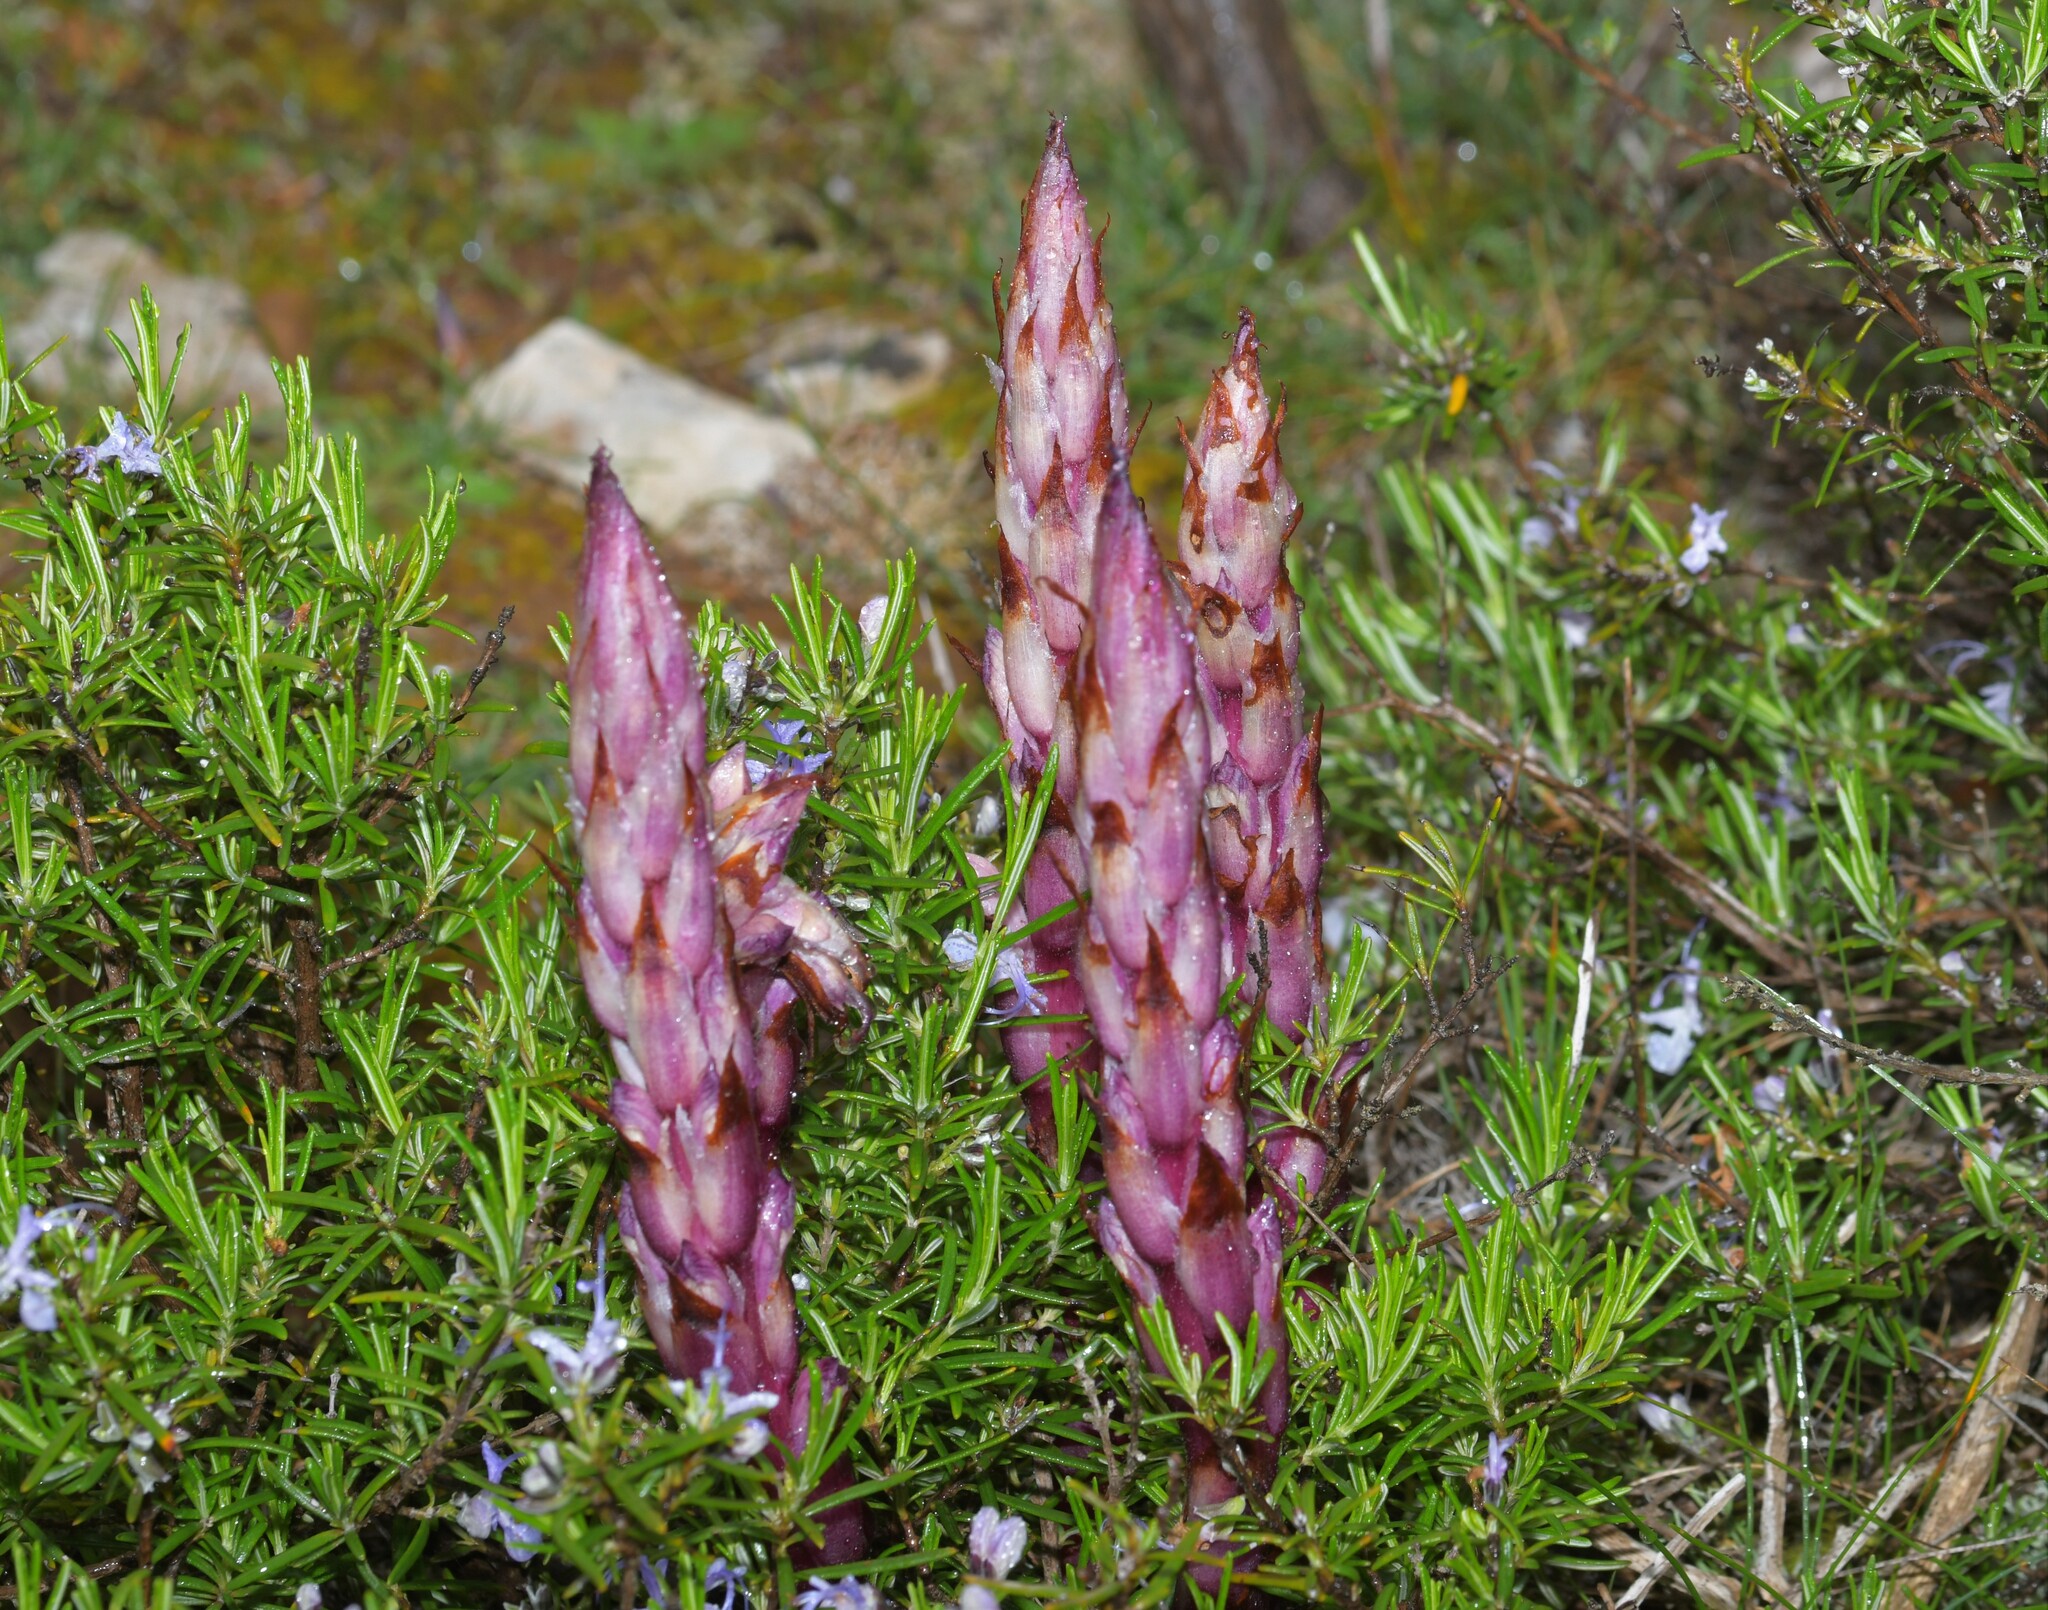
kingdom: Plantae
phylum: Tracheophyta
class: Magnoliopsida
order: Lamiales
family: Orobanchaceae
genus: Boulardia
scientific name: Boulardia latisquama
